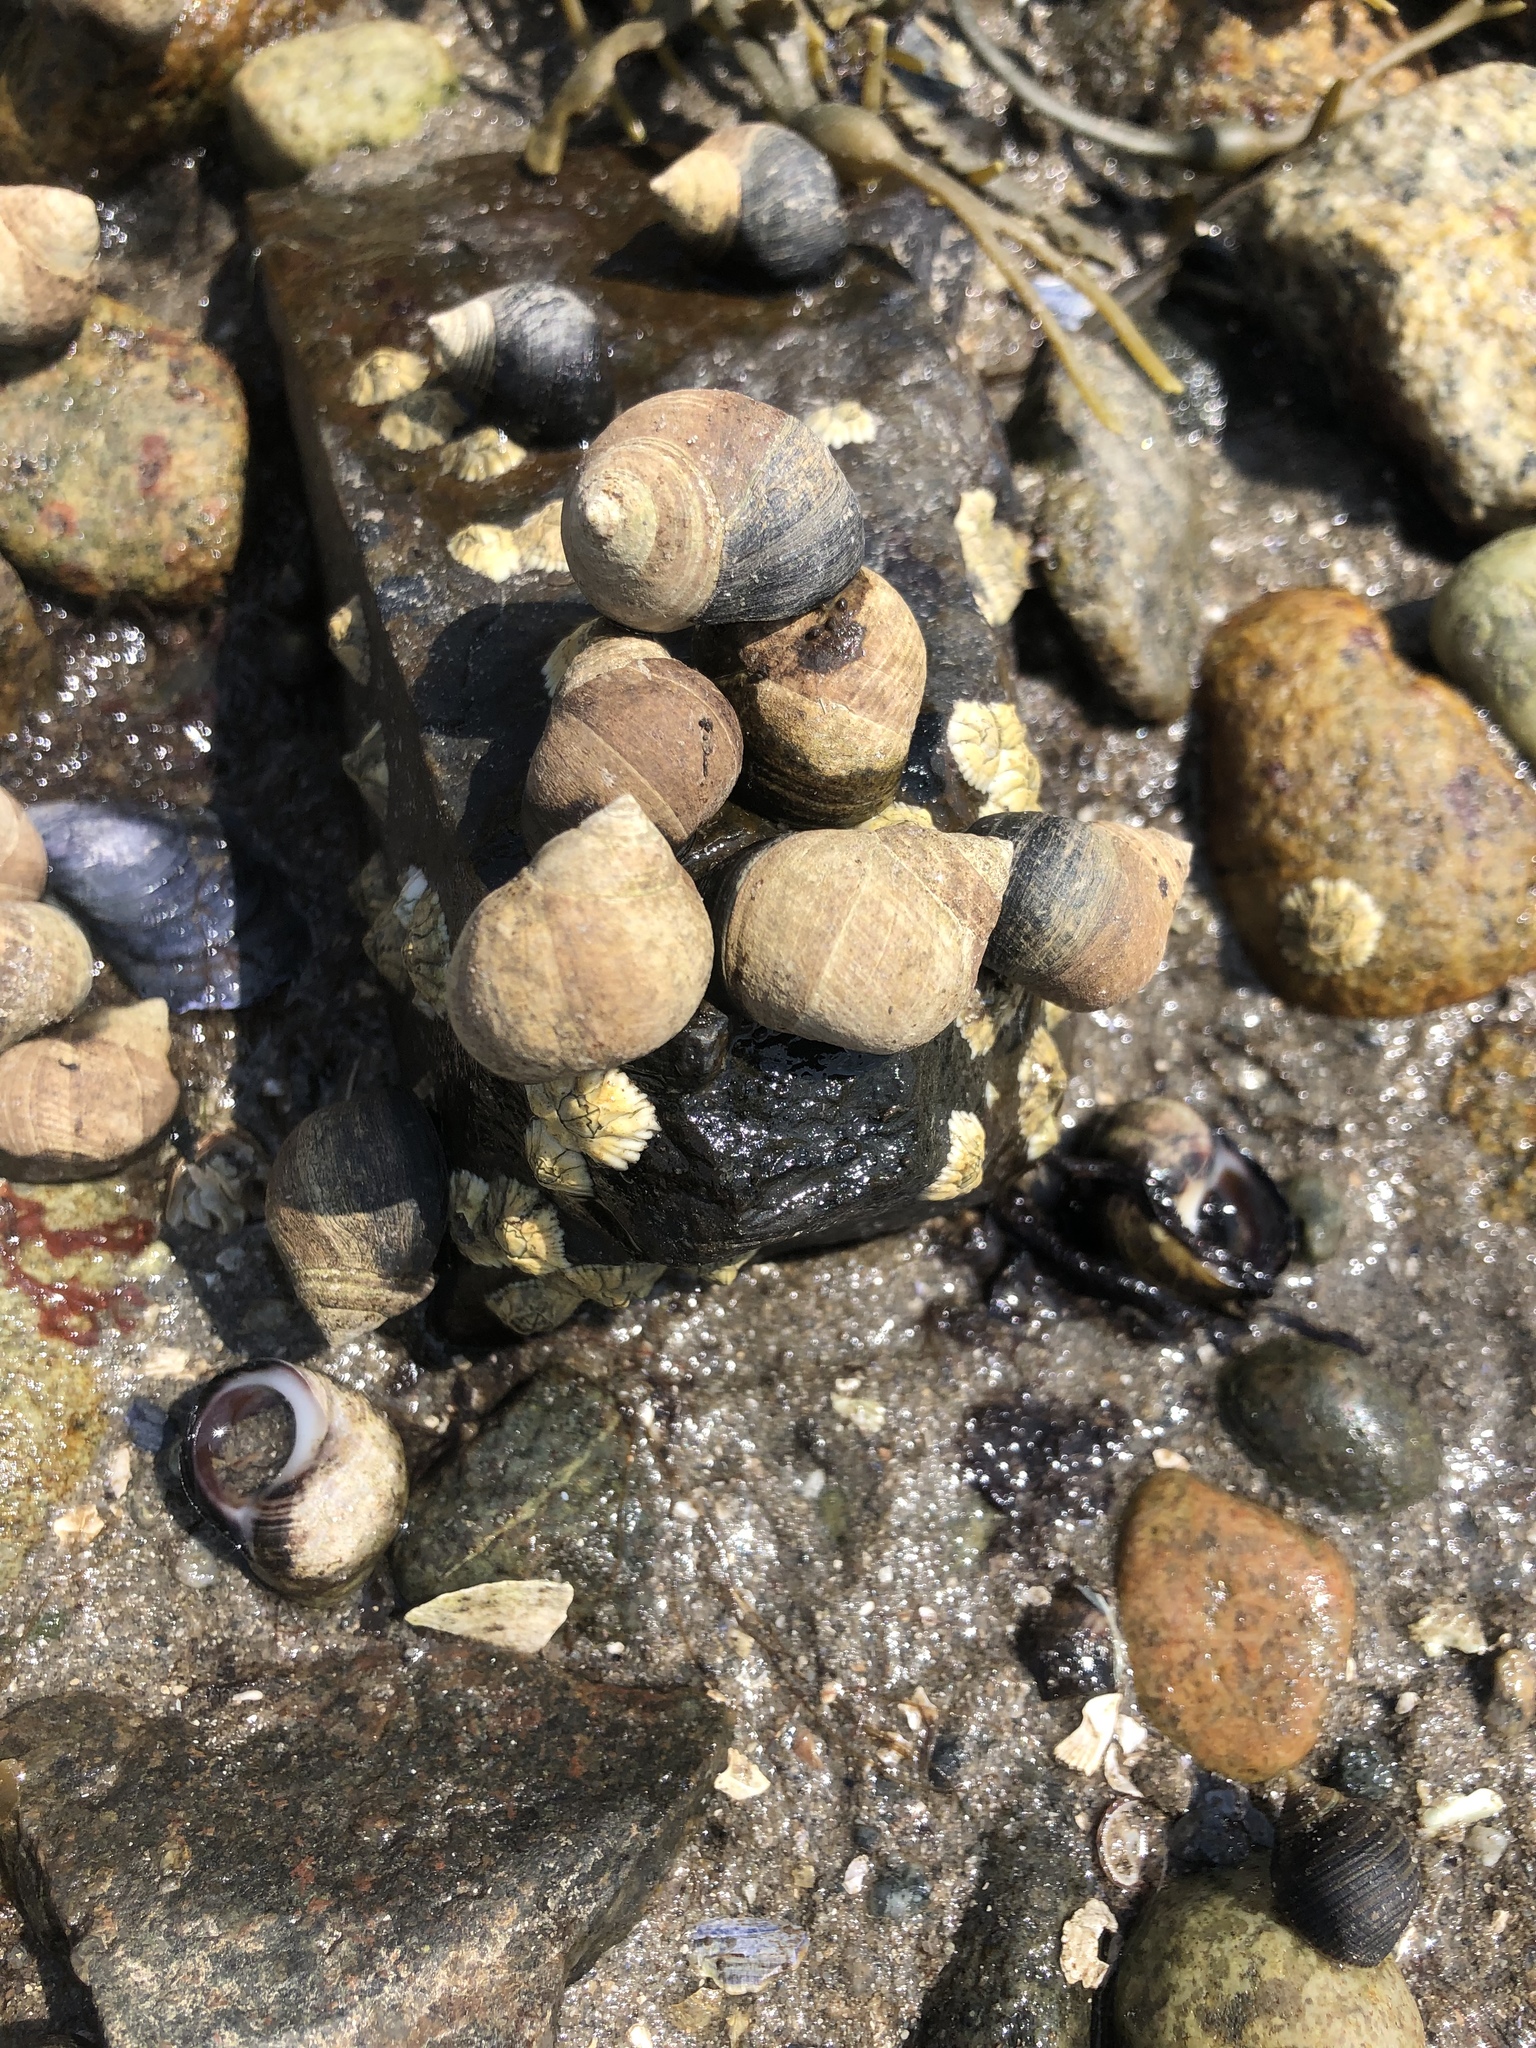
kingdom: Animalia
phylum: Mollusca
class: Gastropoda
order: Littorinimorpha
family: Littorinidae
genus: Littorina
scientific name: Littorina littorea
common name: Common periwinkle
